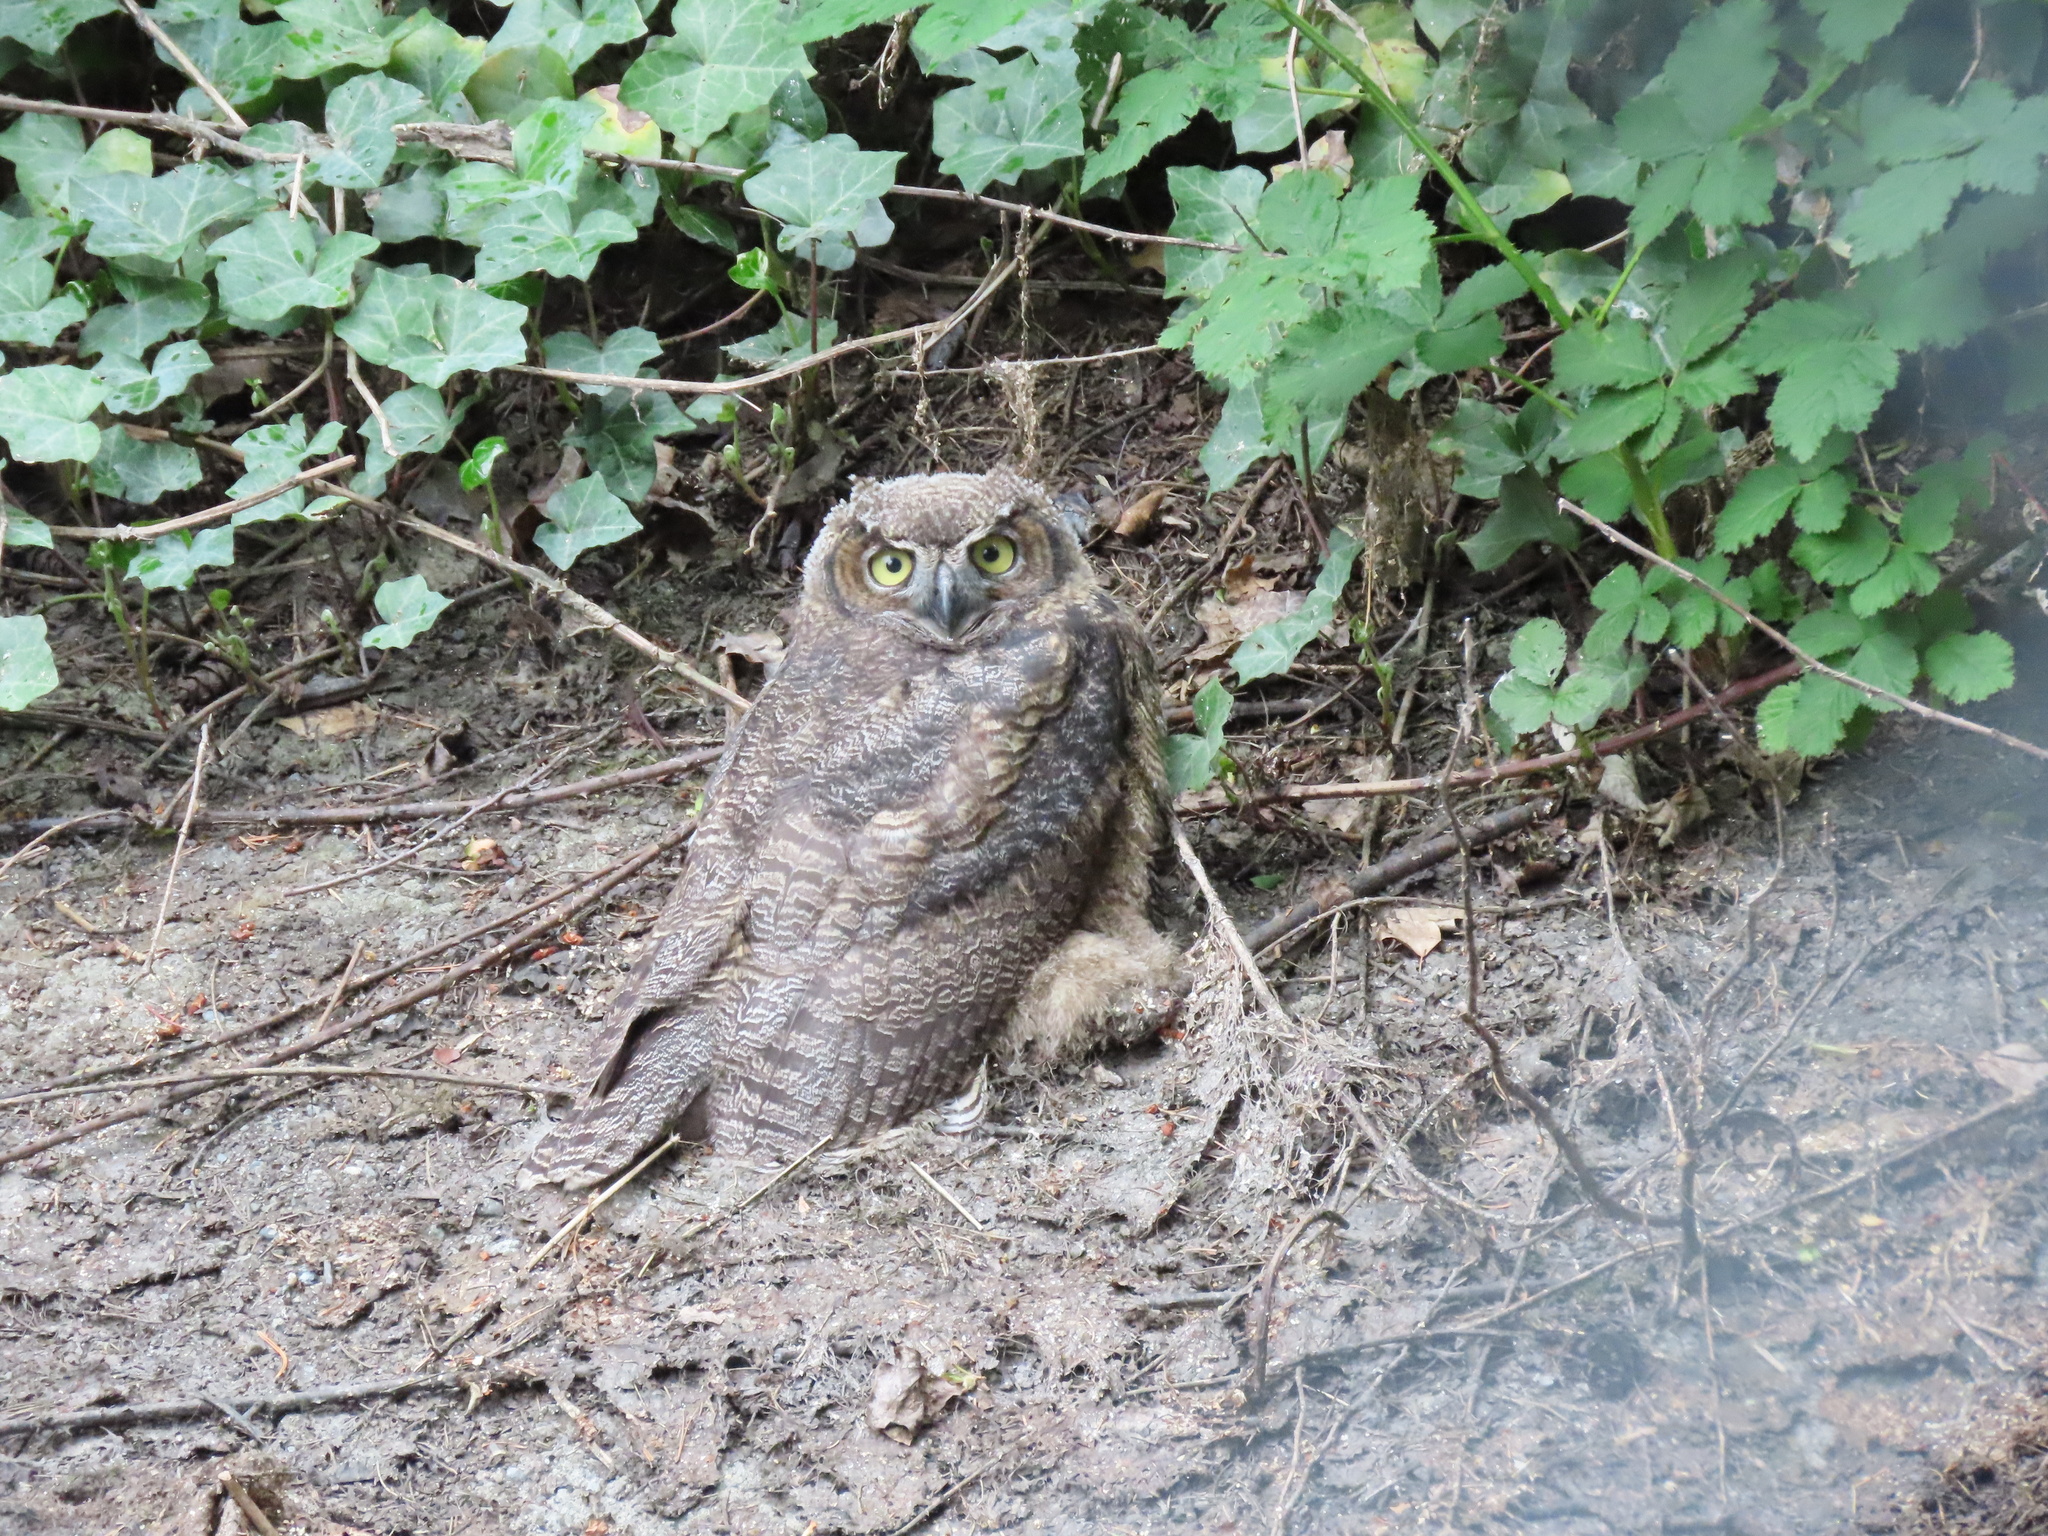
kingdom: Animalia
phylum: Chordata
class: Aves
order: Strigiformes
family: Strigidae
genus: Bubo
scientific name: Bubo virginianus
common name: Great horned owl
